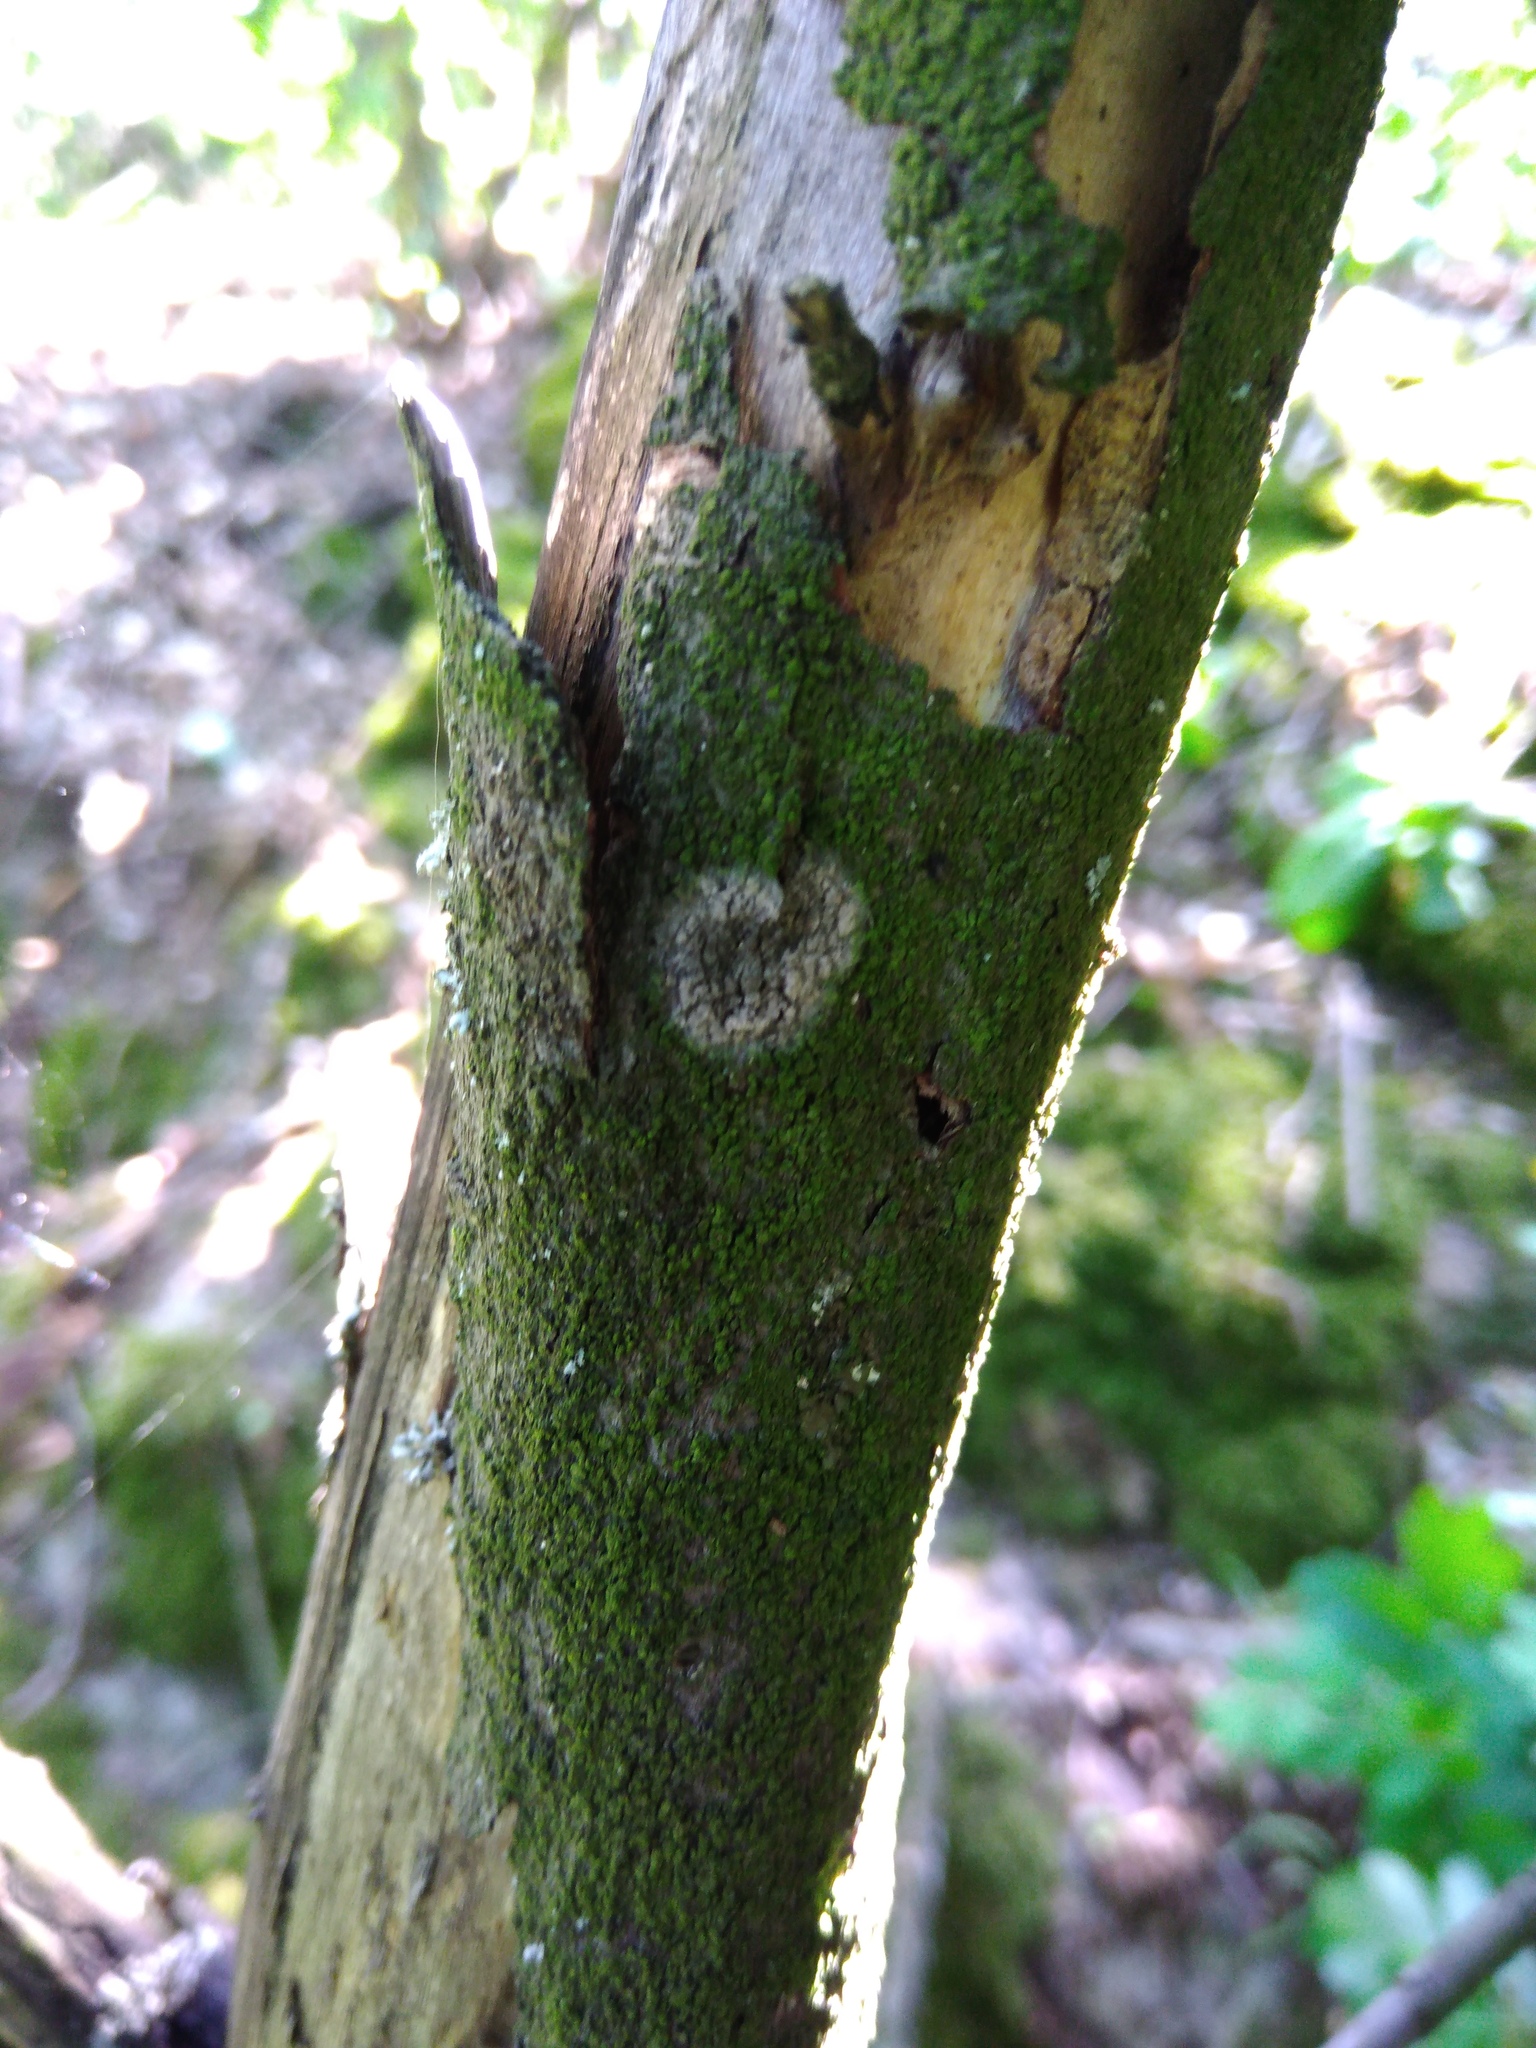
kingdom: Fungi
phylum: Basidiomycota
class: Agaricomycetes
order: Atheliales
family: Atheliaceae
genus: Athelia
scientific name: Athelia arachnoidea
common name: Candelabra duster
